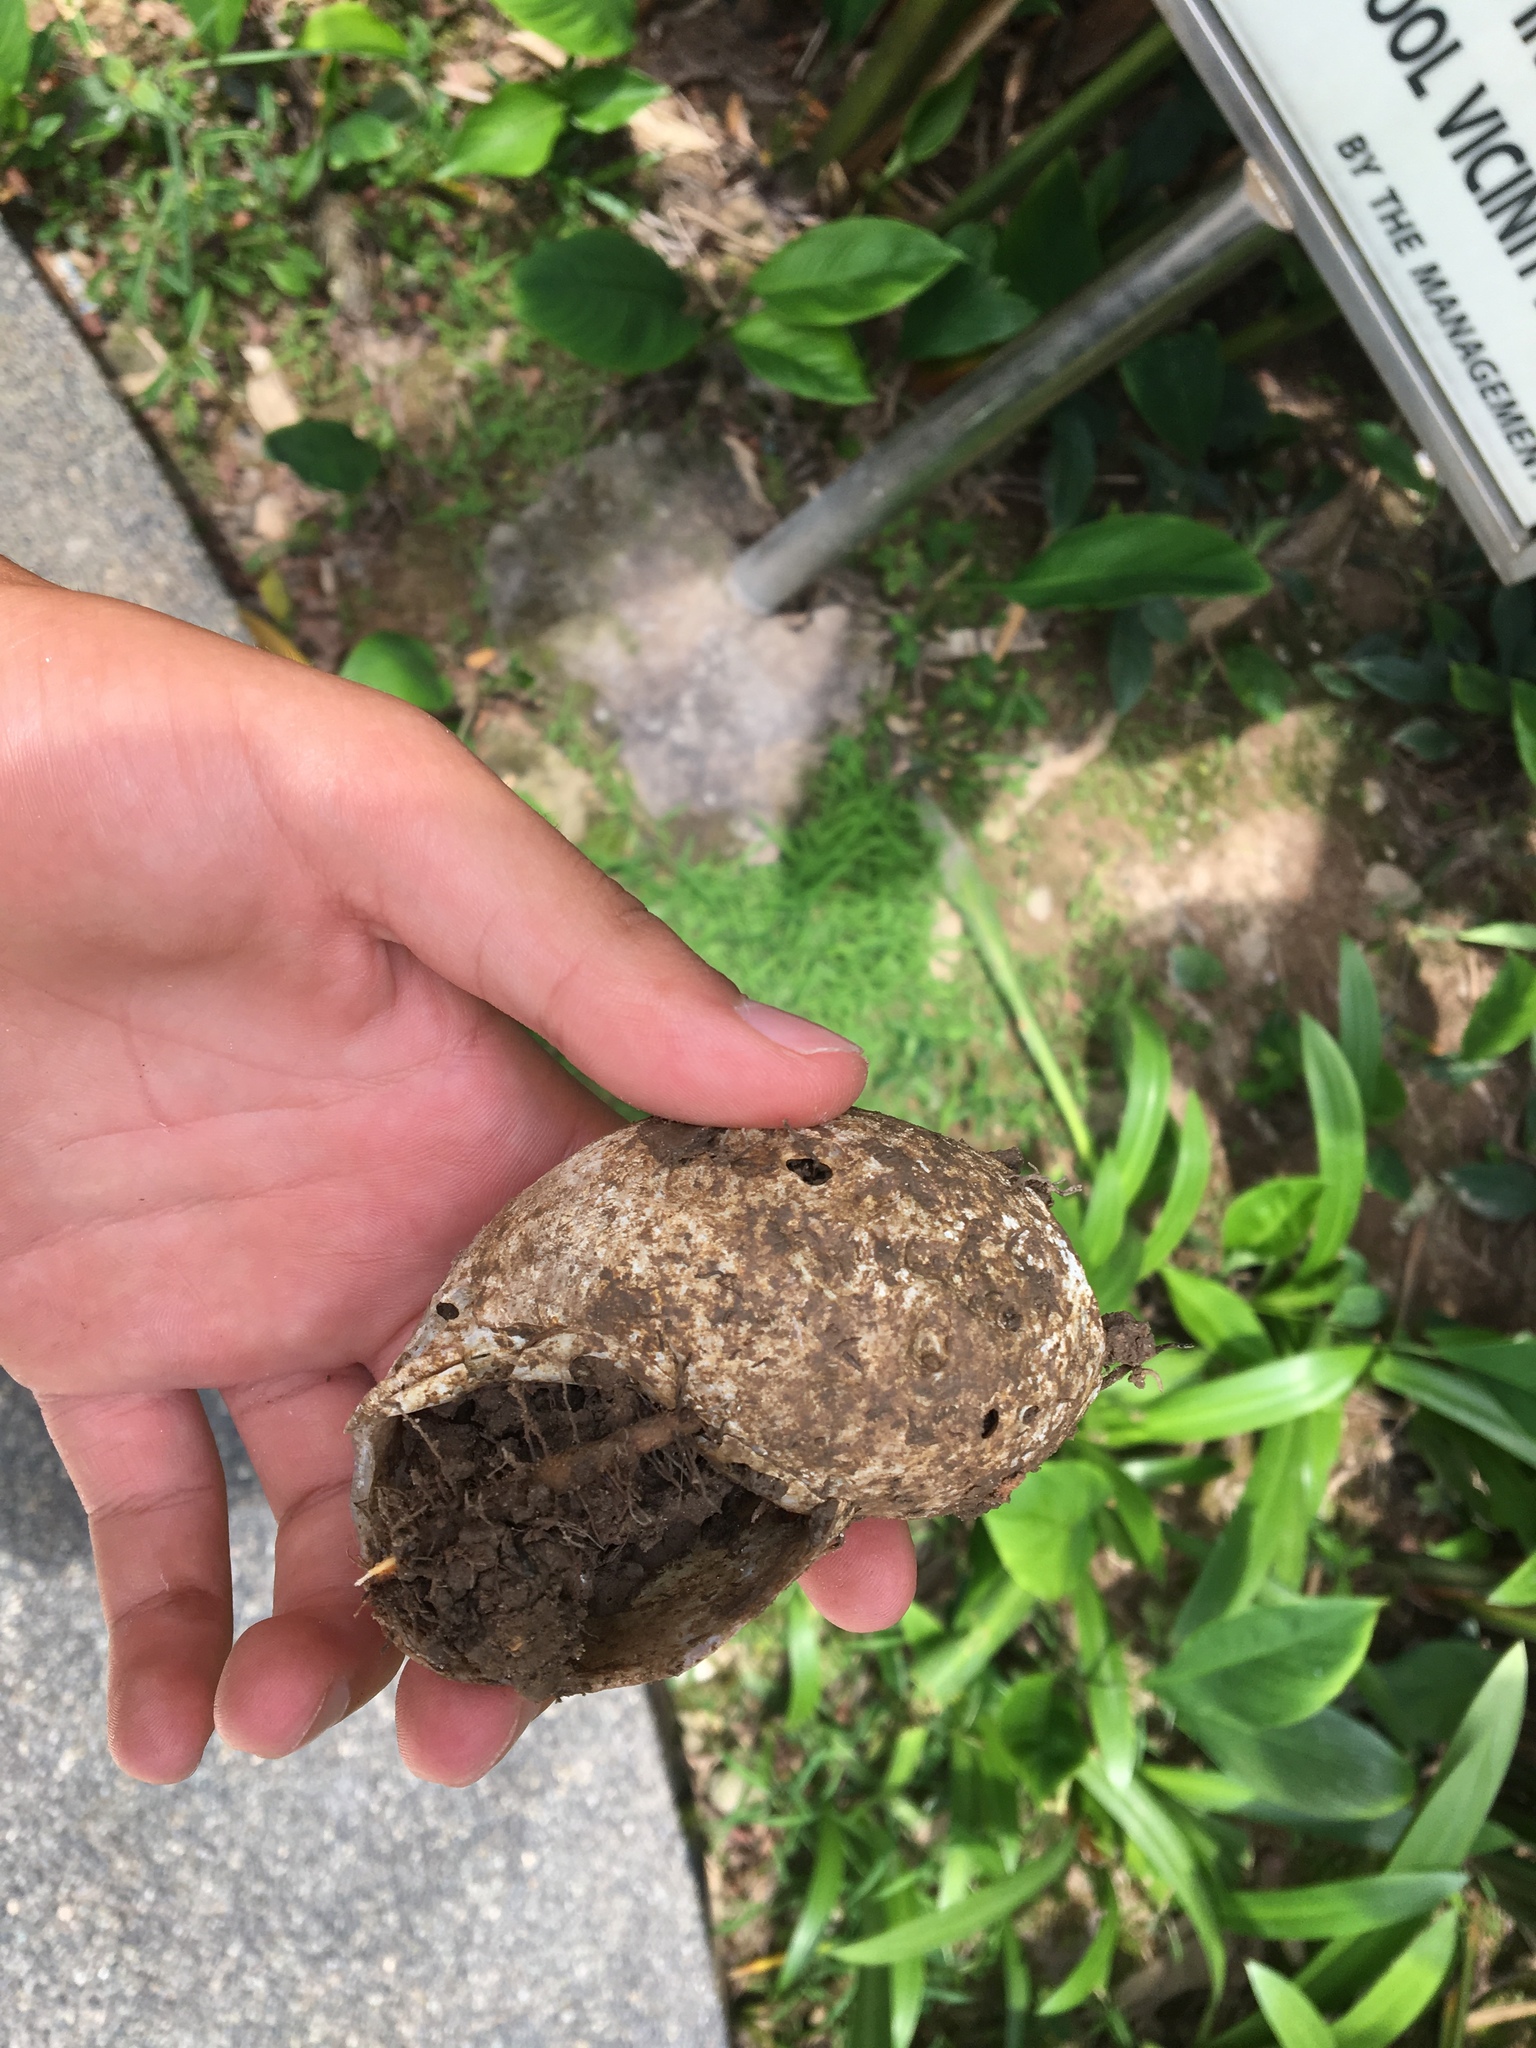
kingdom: Animalia
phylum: Mollusca
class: Gastropoda
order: Stylommatophora
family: Achatinidae
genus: Lissachatina
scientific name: Lissachatina fulica
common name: Giant african snail
